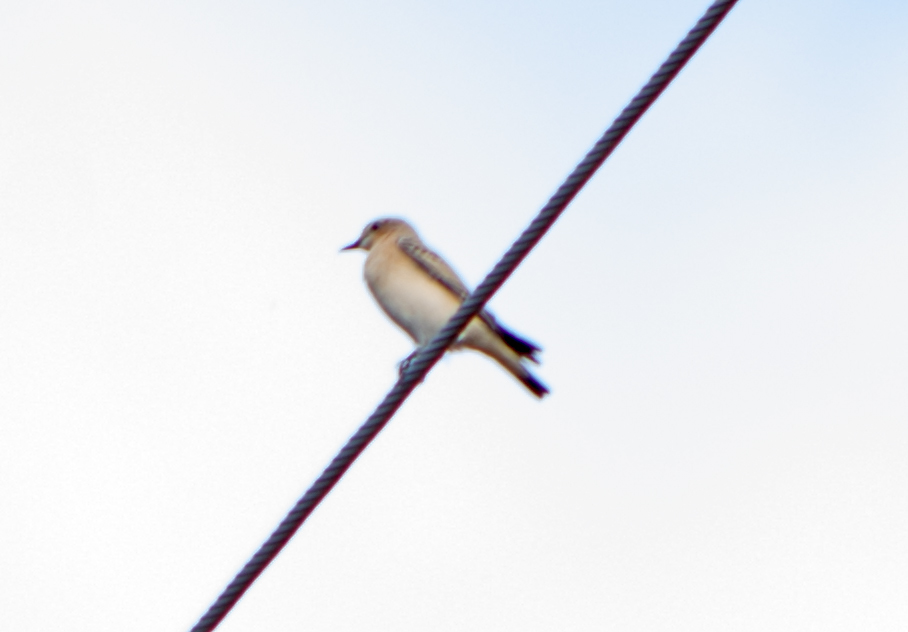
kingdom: Animalia
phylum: Chordata
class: Aves
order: Passeriformes
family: Muscicapidae
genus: Oenanthe
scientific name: Oenanthe oenanthe
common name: Northern wheatear
